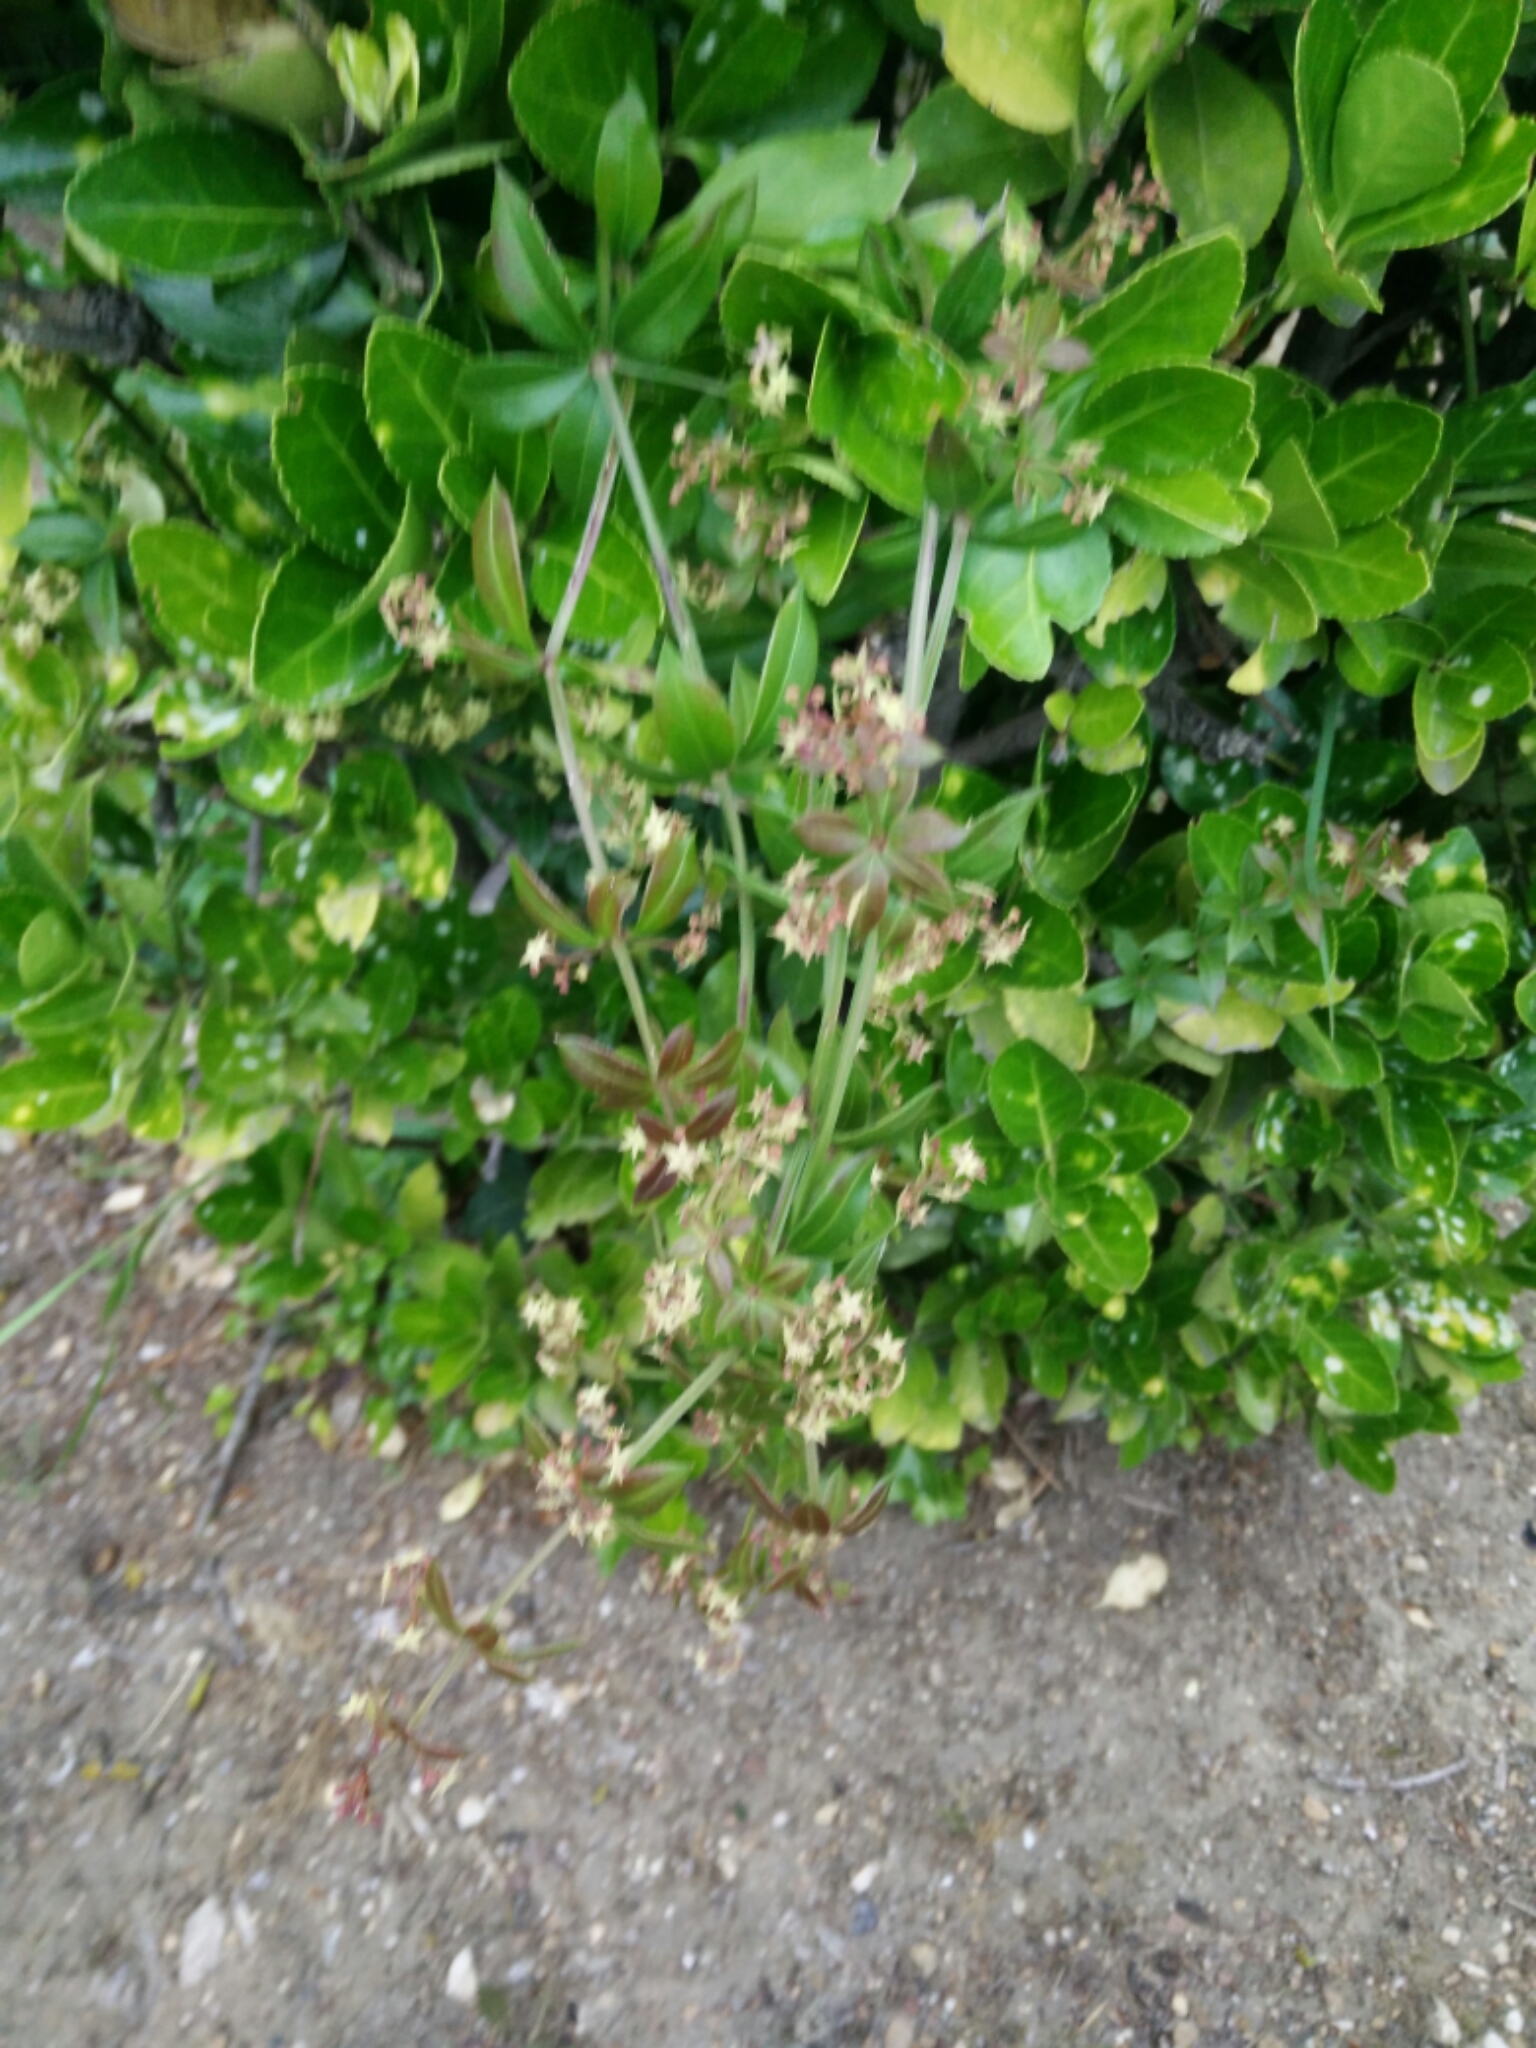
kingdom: Plantae
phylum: Tracheophyta
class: Magnoliopsida
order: Gentianales
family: Rubiaceae
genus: Rubia
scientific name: Rubia peregrina
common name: Wild madder
